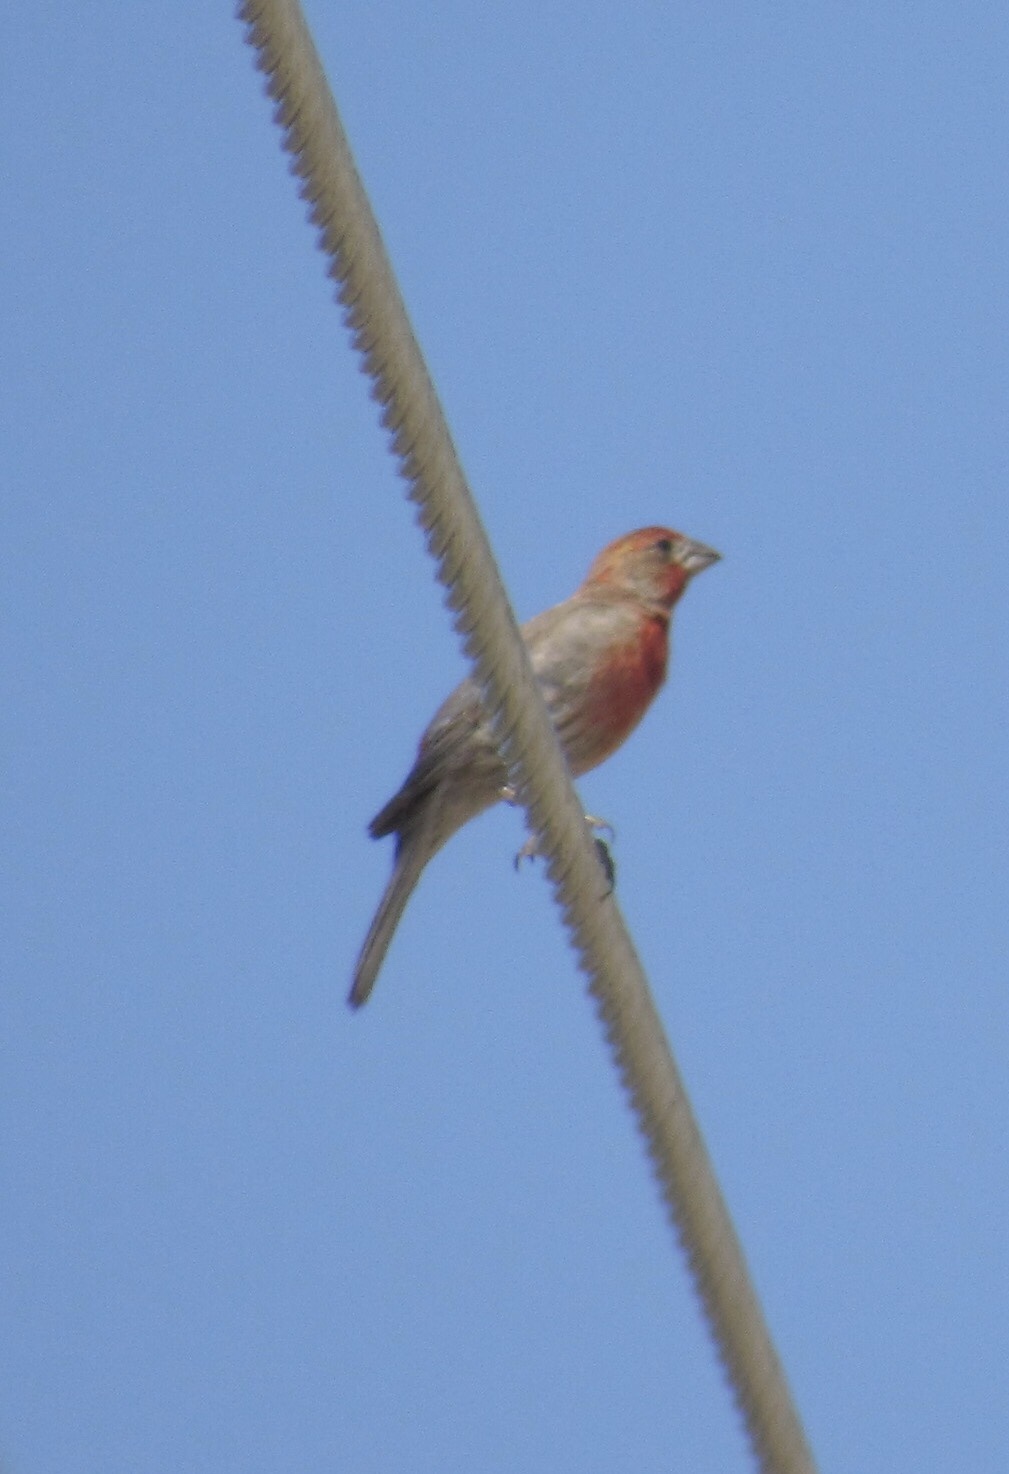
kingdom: Animalia
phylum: Chordata
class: Aves
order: Passeriformes
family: Fringillidae
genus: Haemorhous
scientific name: Haemorhous mexicanus
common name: House finch
